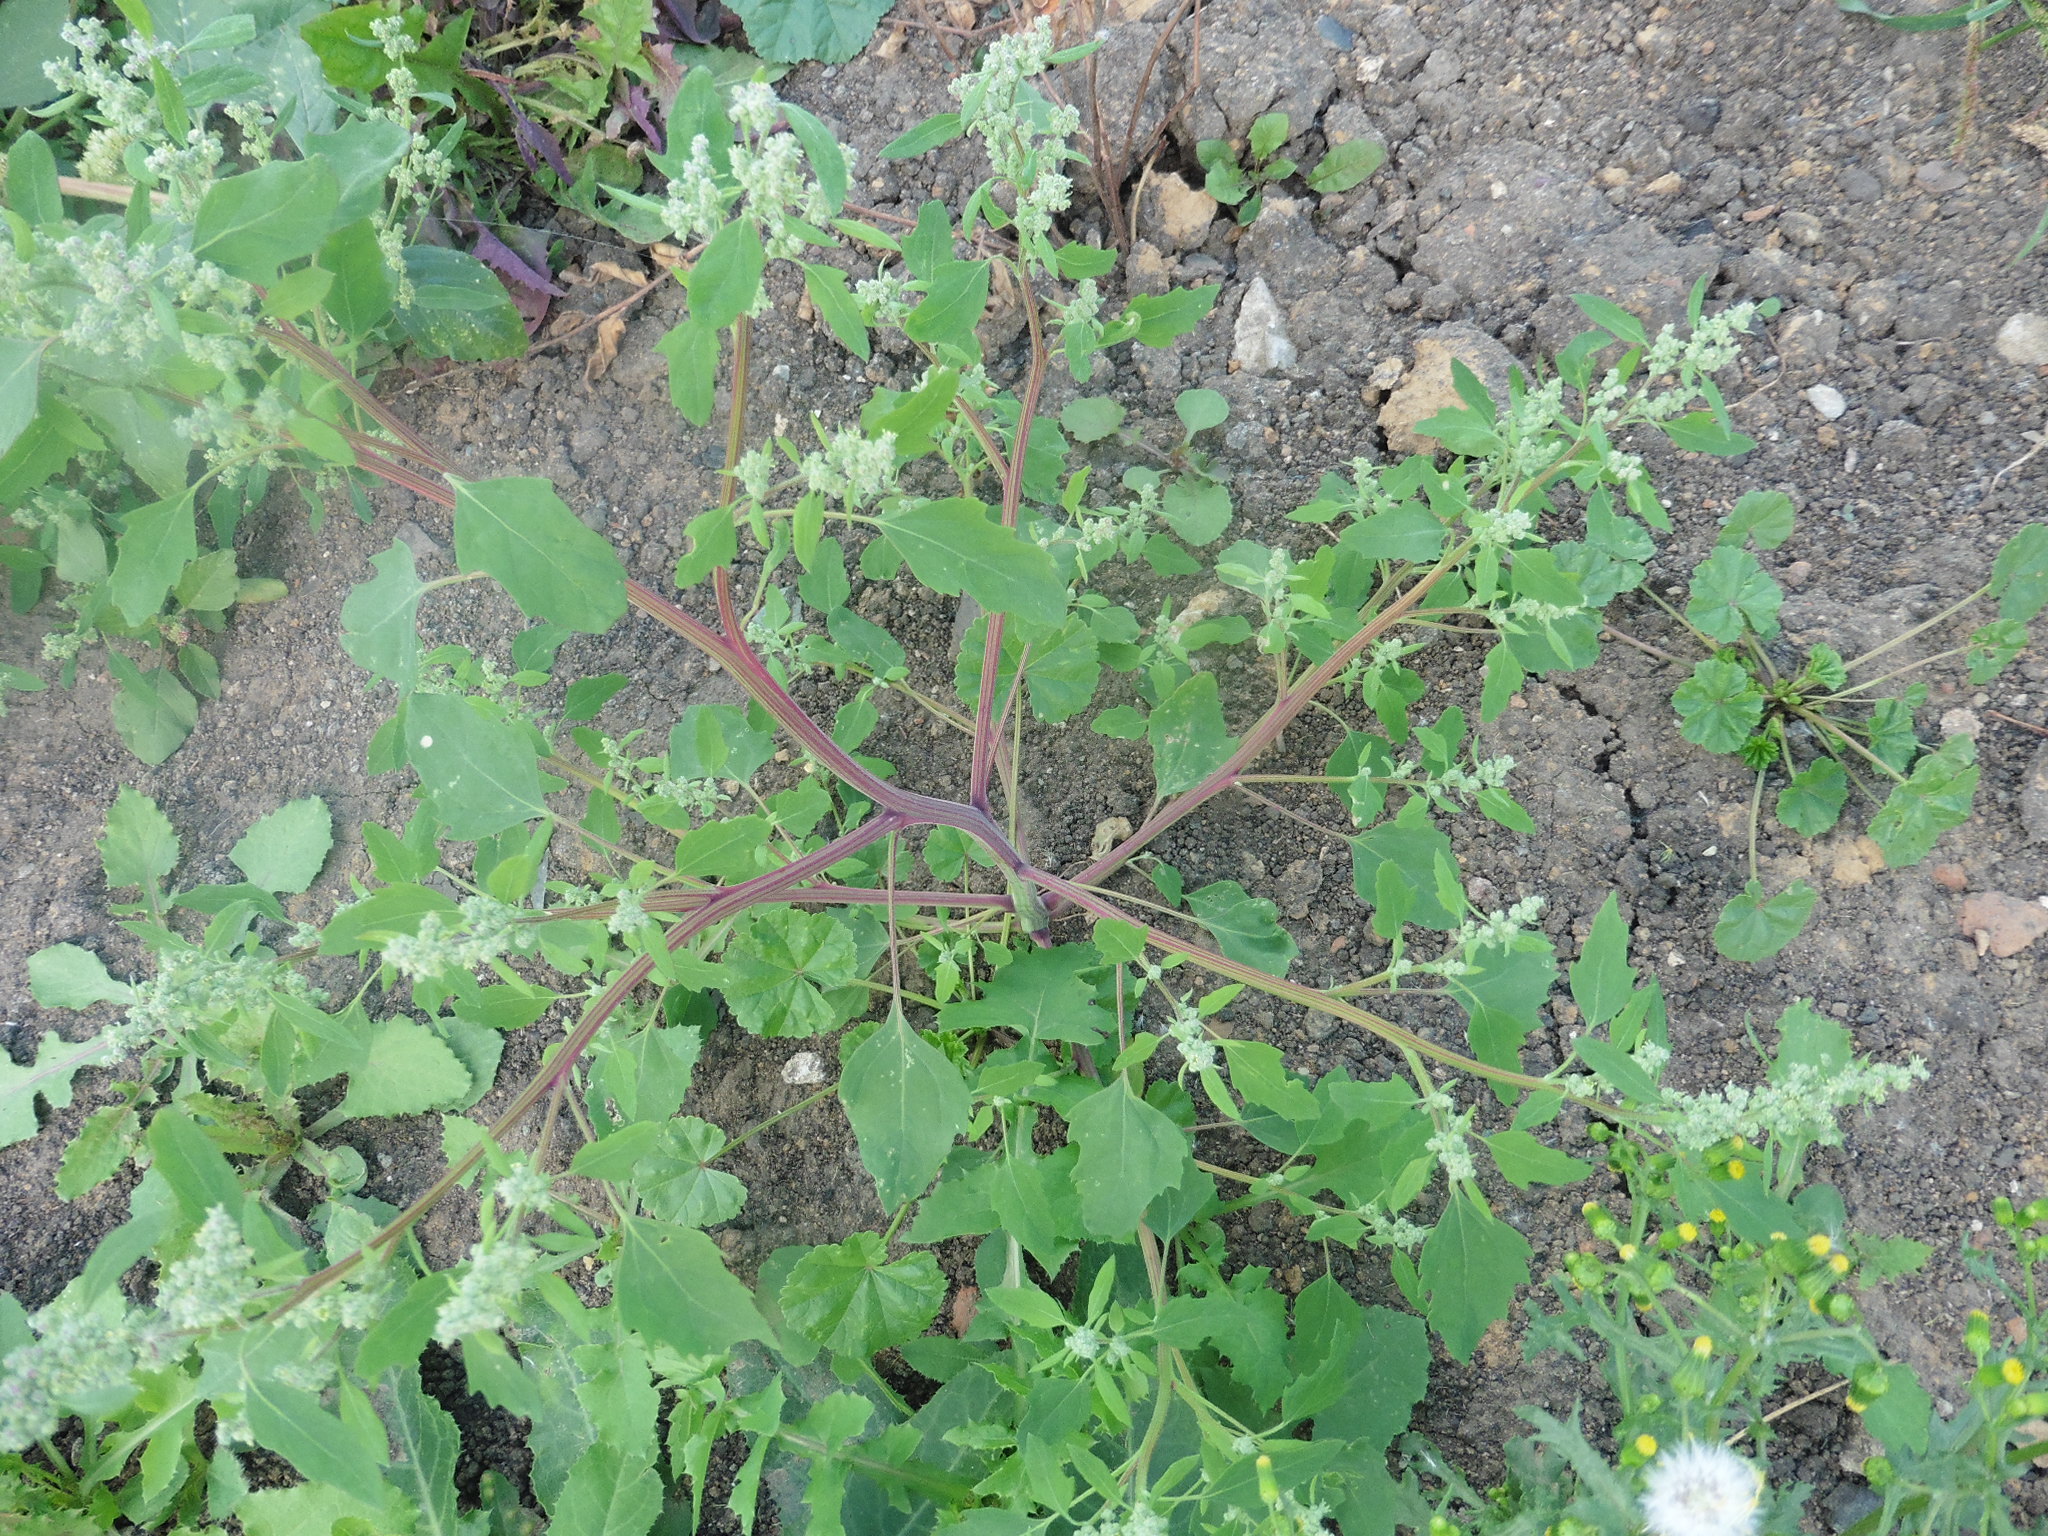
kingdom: Plantae
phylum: Tracheophyta
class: Magnoliopsida
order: Caryophyllales
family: Amaranthaceae
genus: Chenopodium
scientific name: Chenopodium album
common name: Fat-hen
